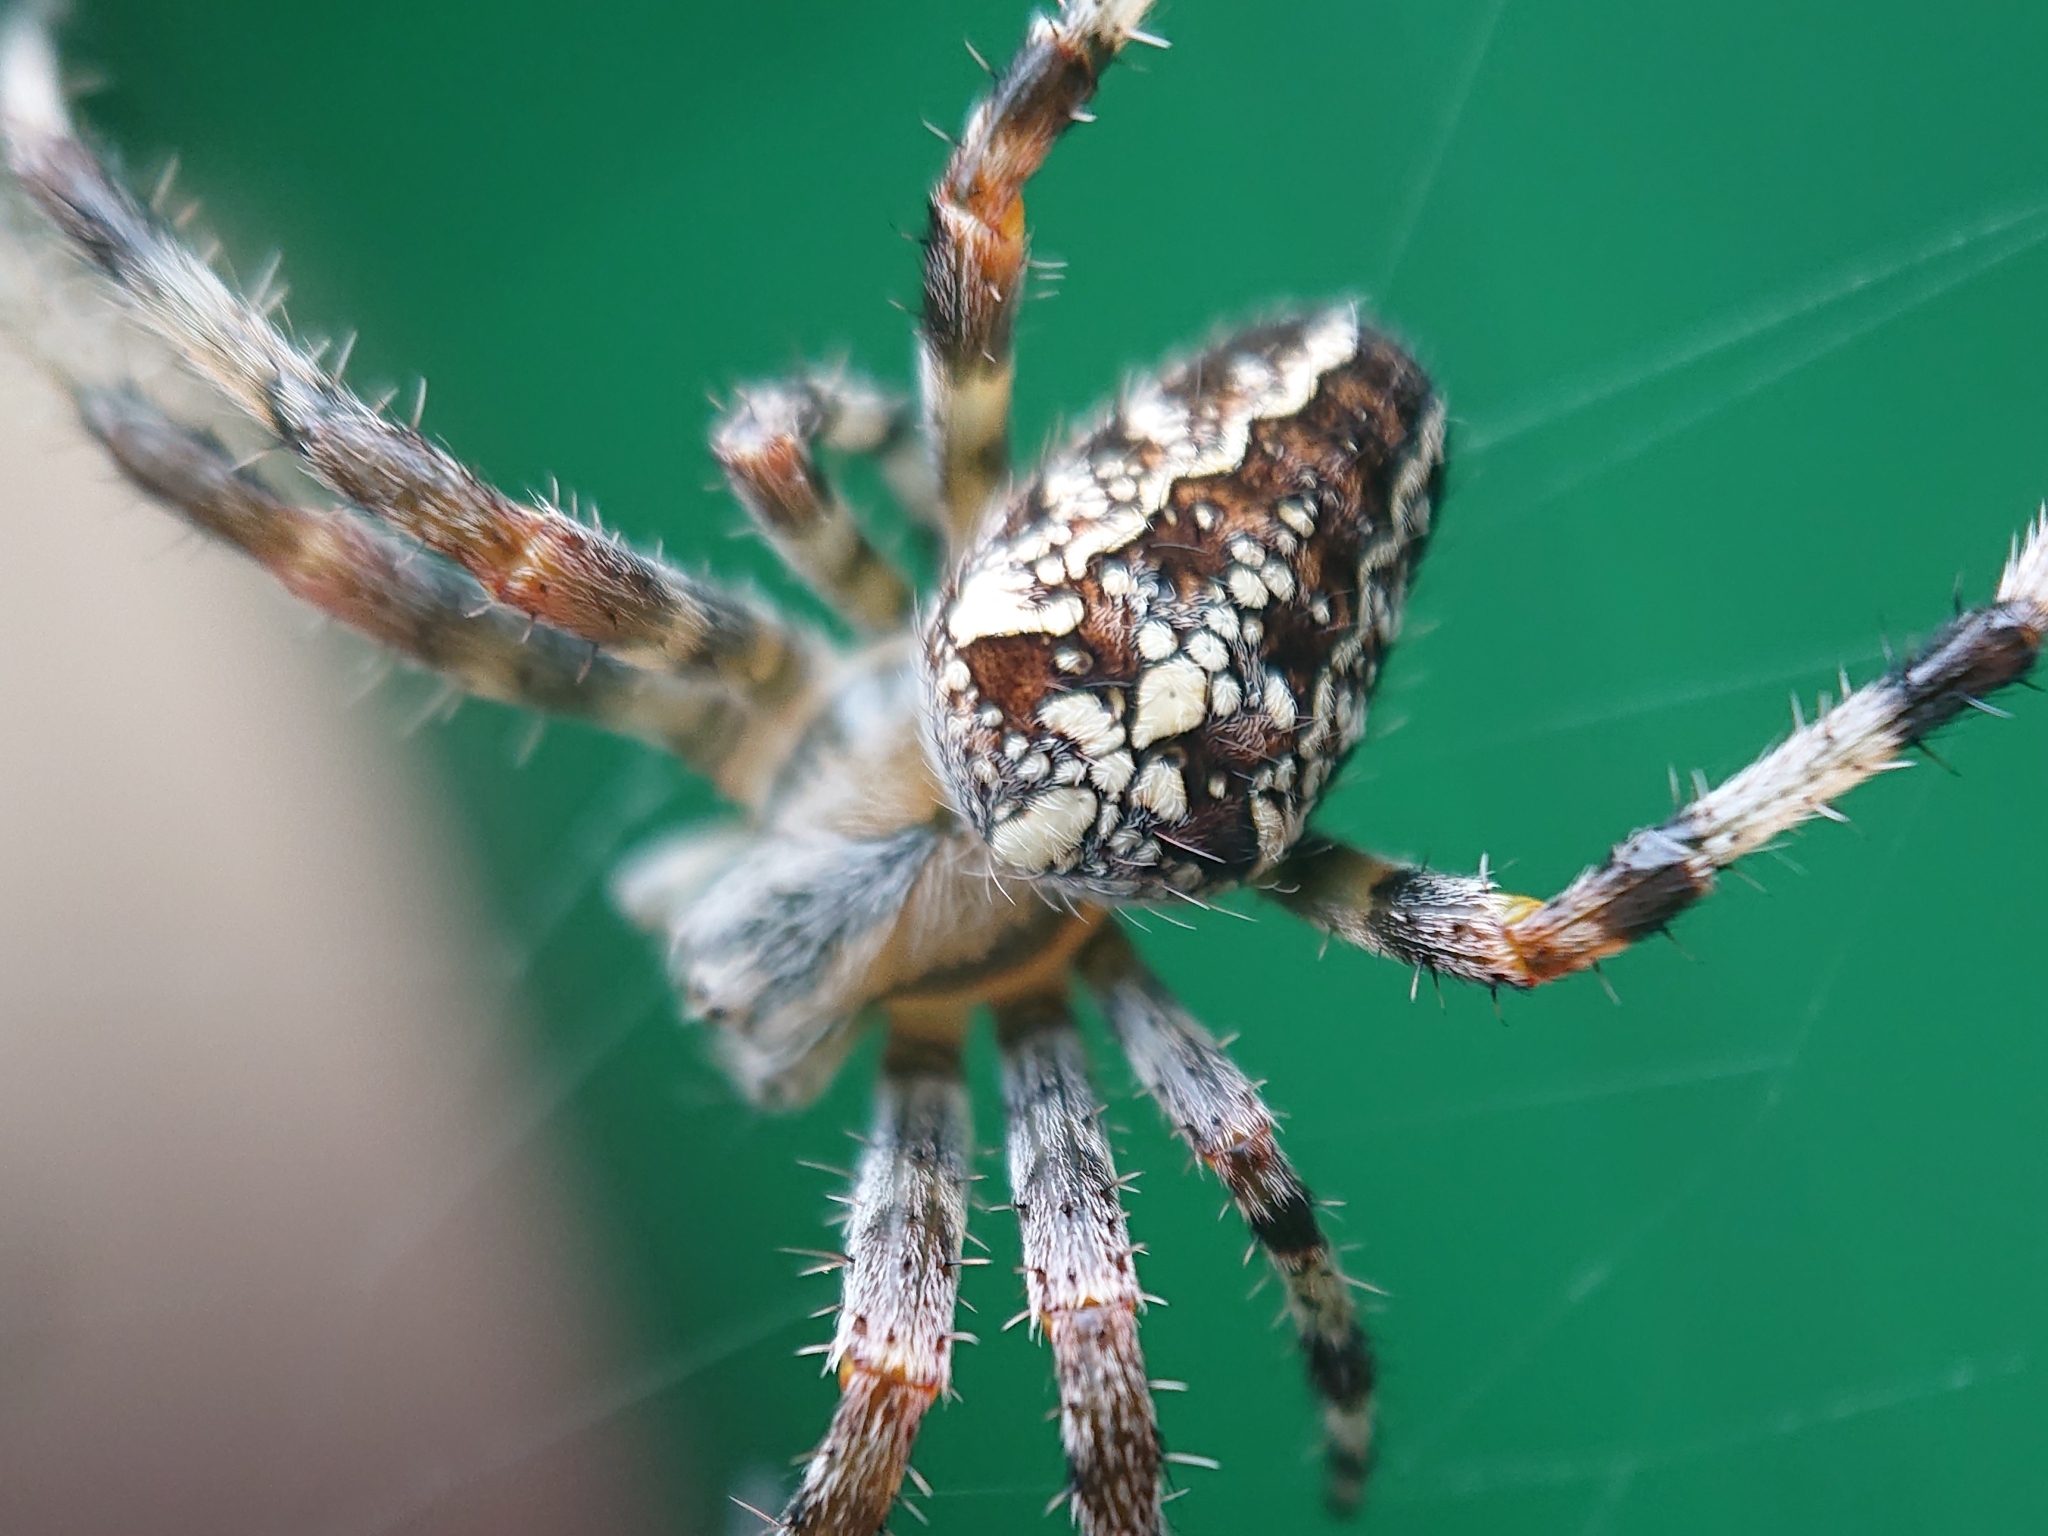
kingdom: Animalia
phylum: Arthropoda
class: Arachnida
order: Araneae
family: Araneidae
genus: Araneus
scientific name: Araneus diadematus
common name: Cross orbweaver
